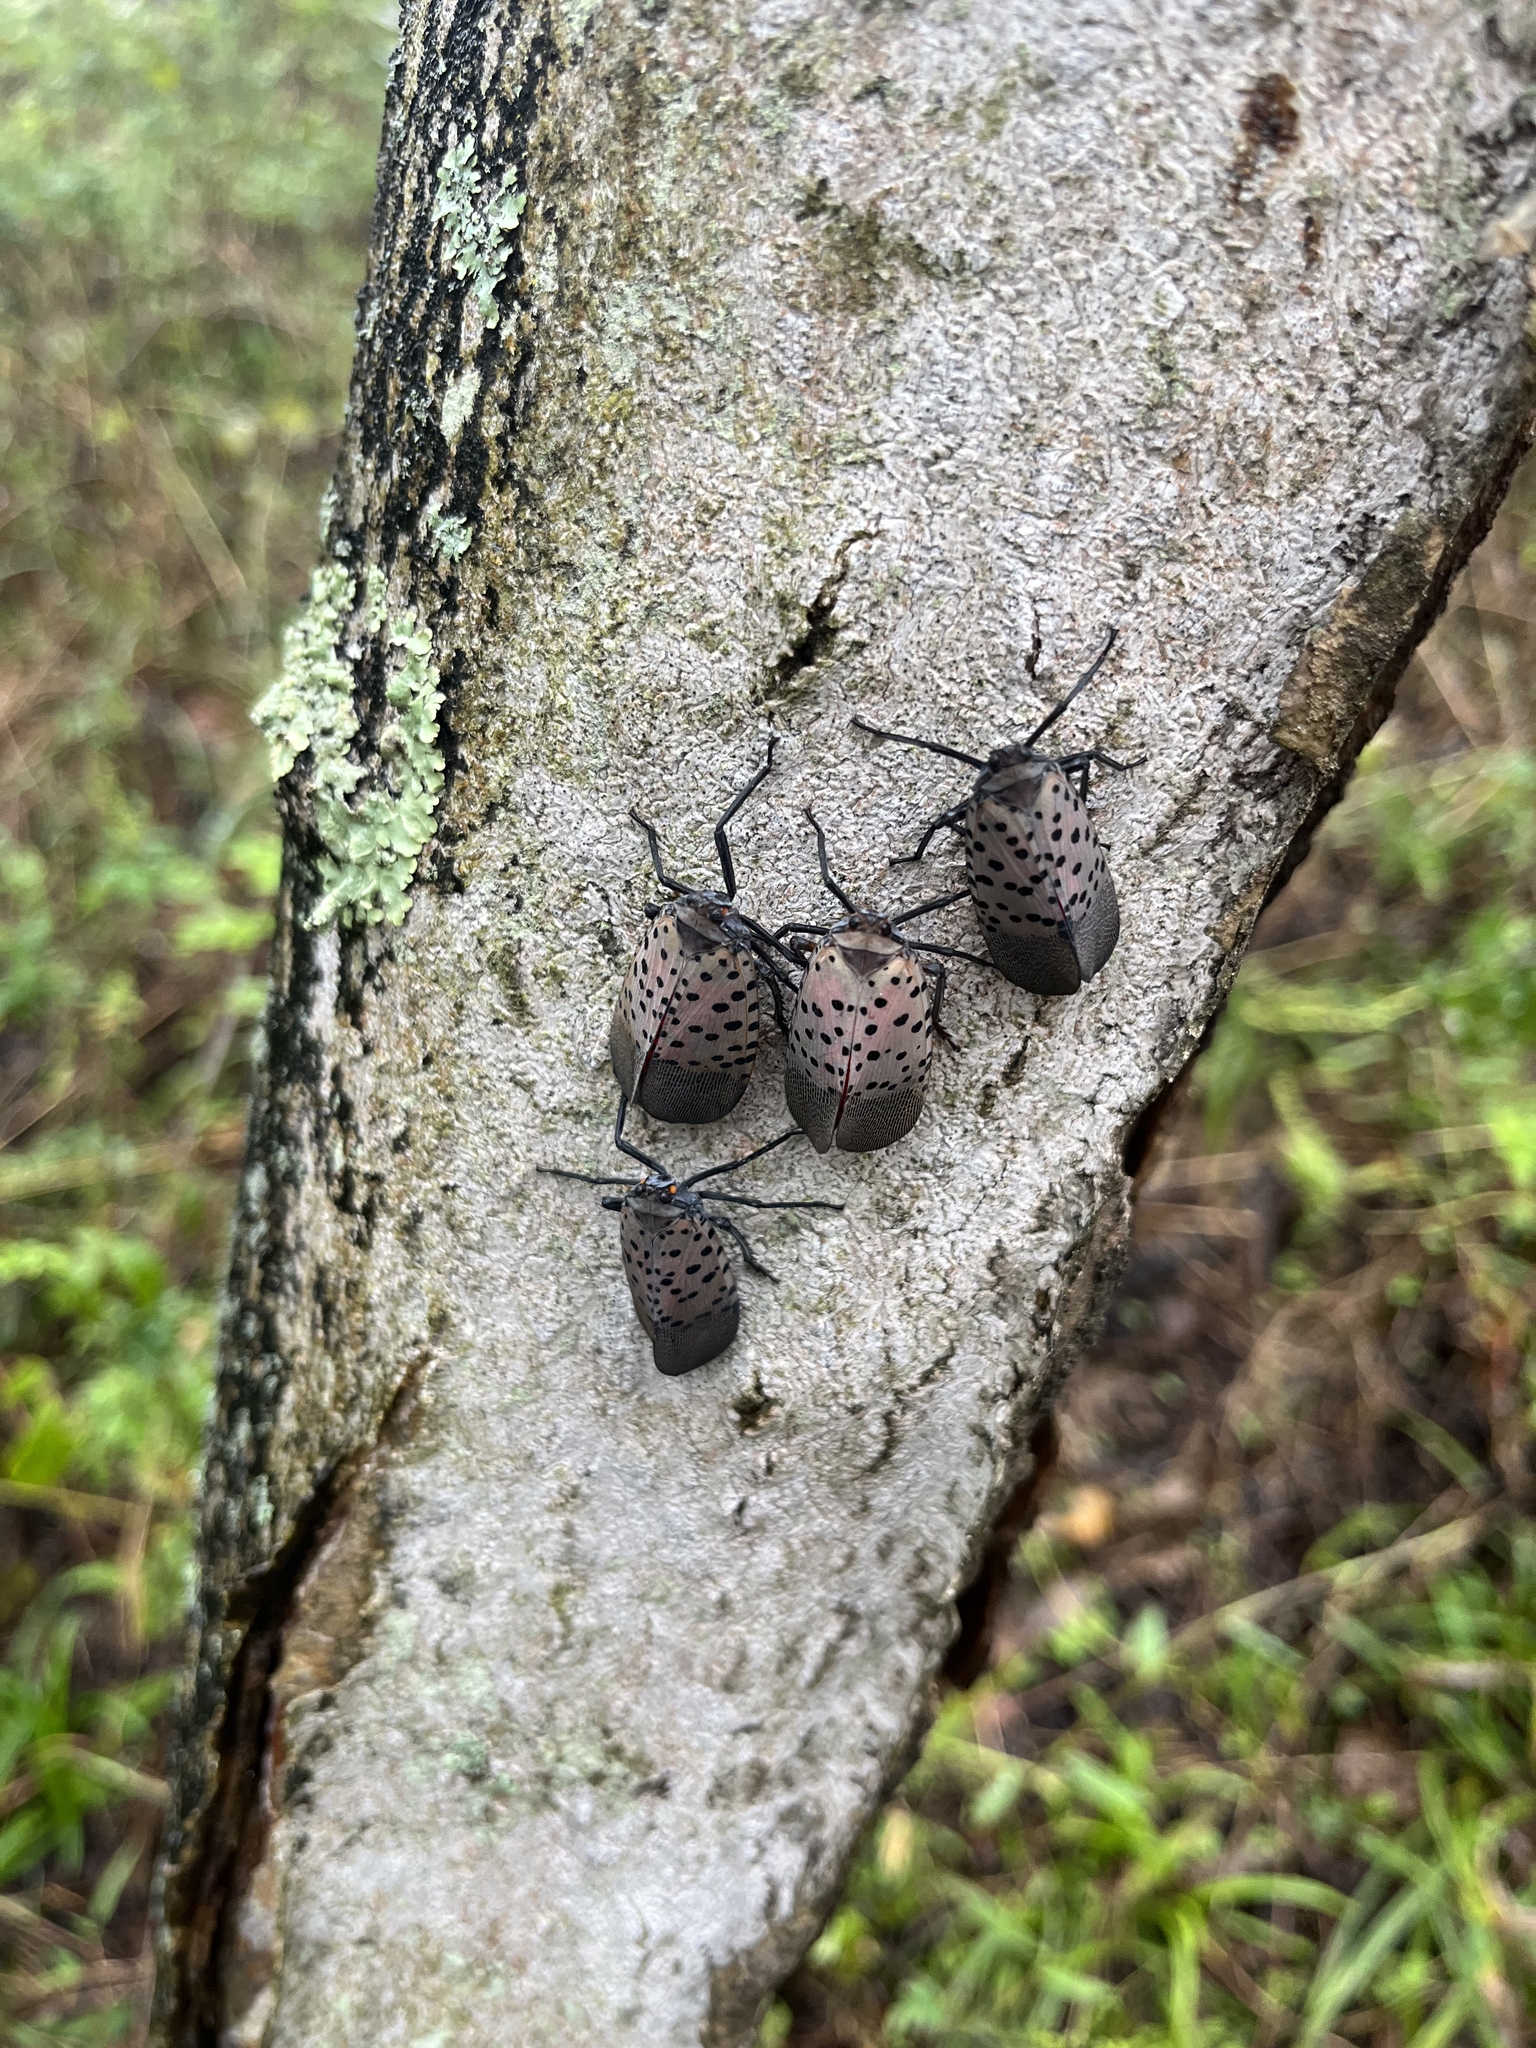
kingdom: Animalia
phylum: Arthropoda
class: Insecta
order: Hemiptera
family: Fulgoridae
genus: Lycorma
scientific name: Lycorma delicatula
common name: Spotted lanternfly
